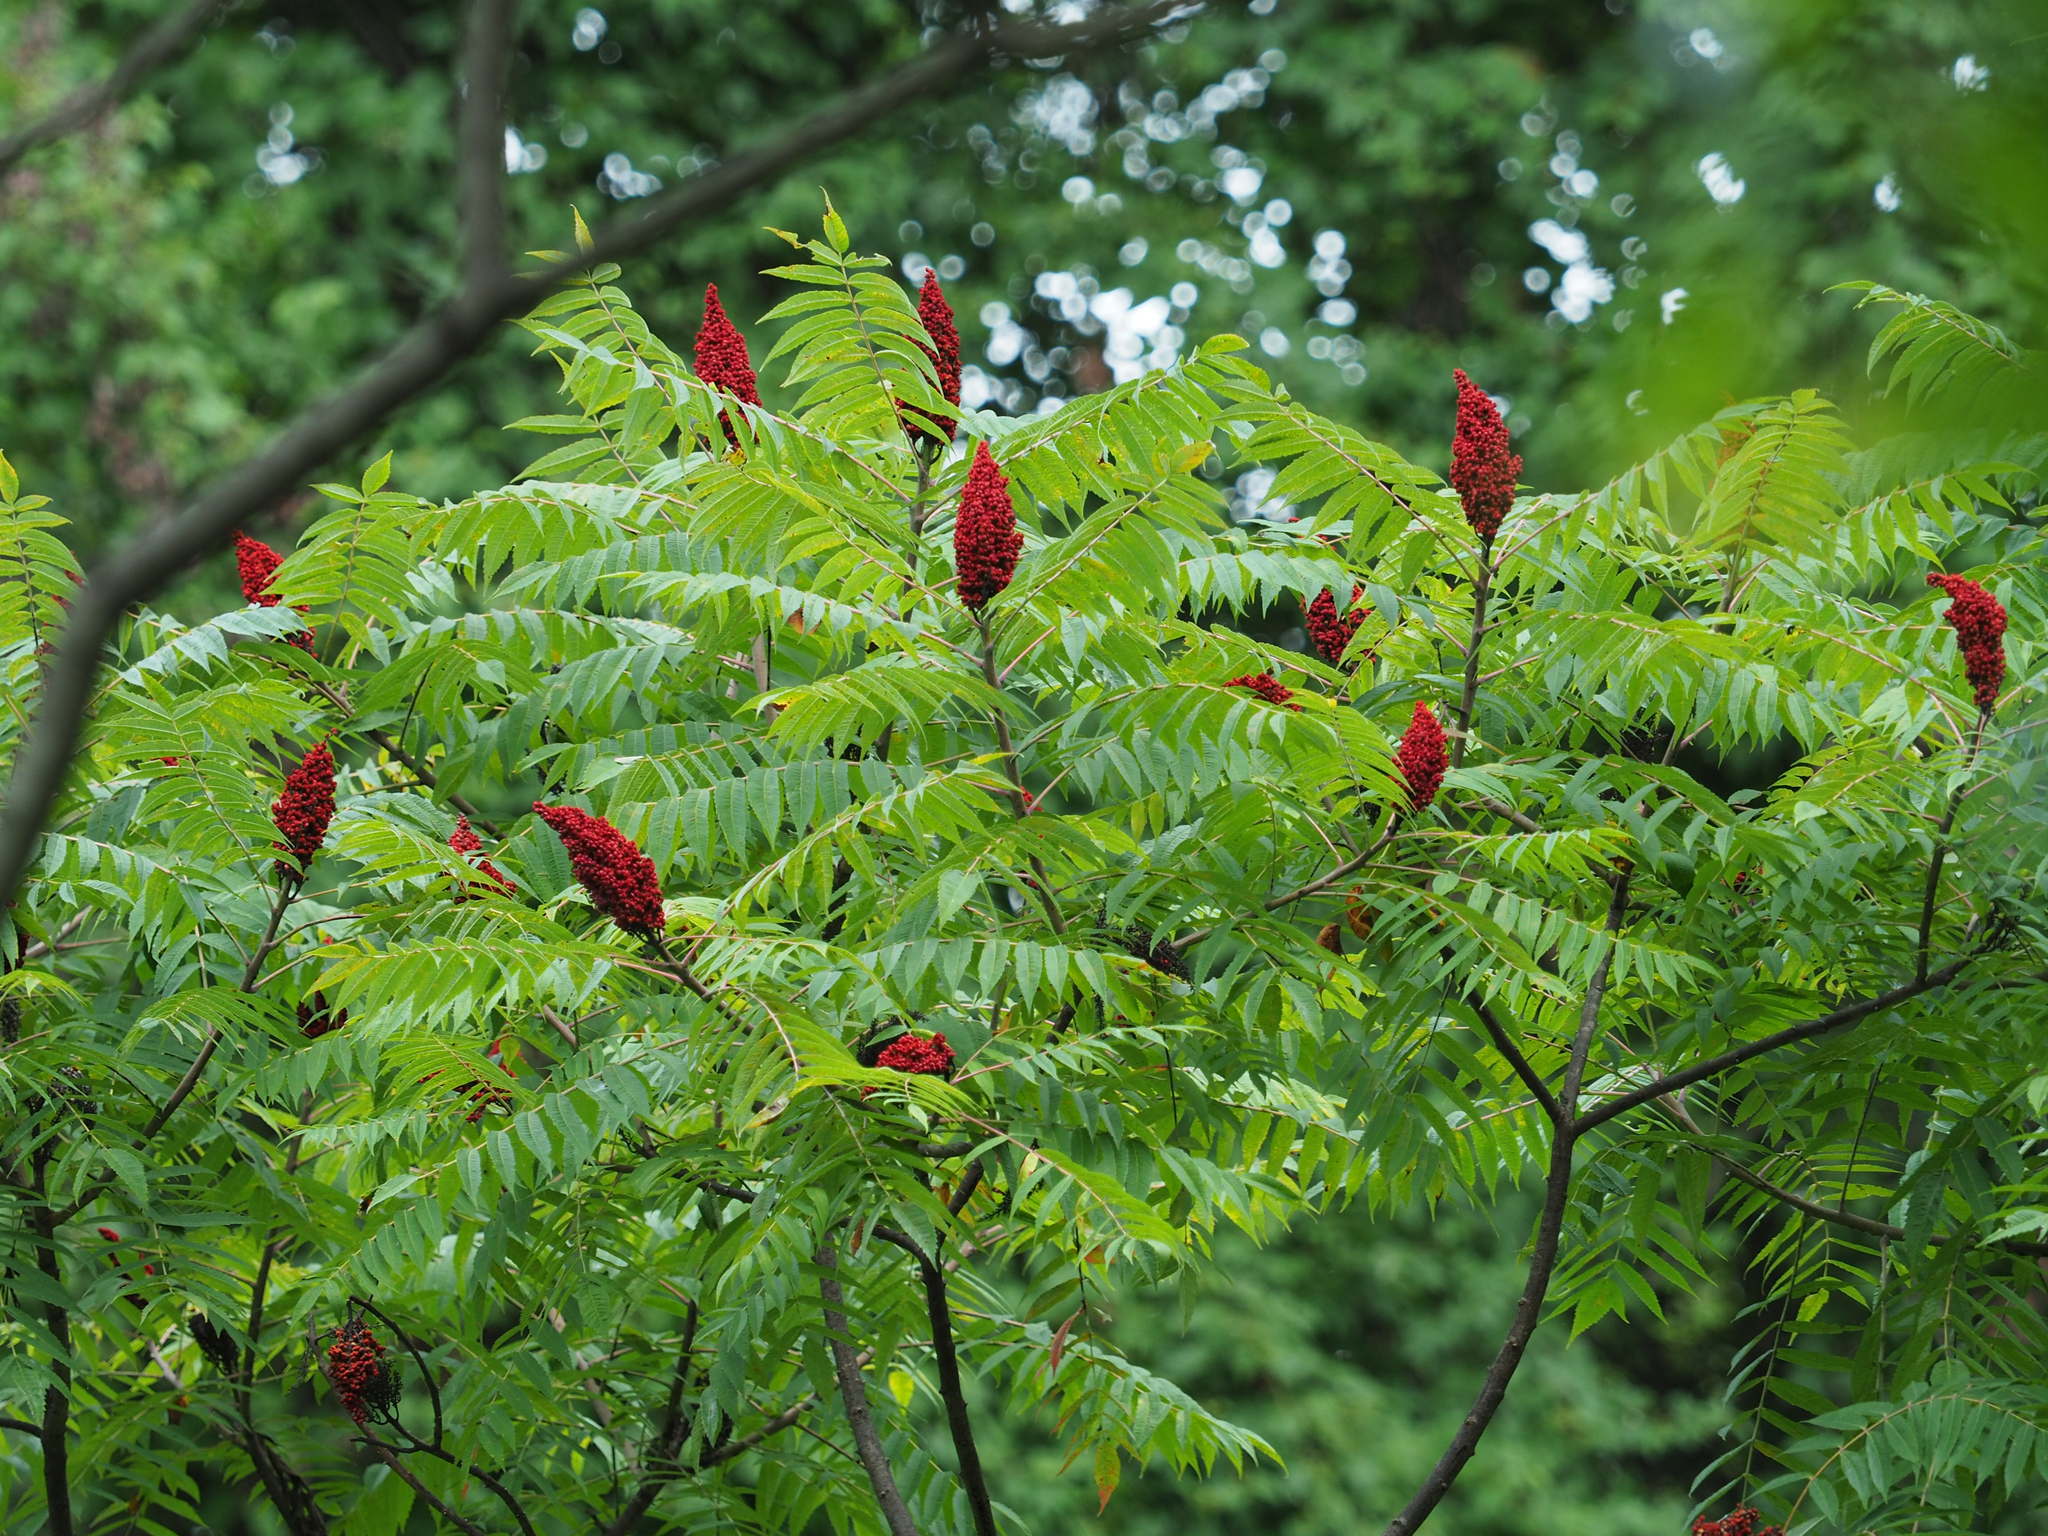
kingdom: Plantae
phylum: Tracheophyta
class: Magnoliopsida
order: Sapindales
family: Anacardiaceae
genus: Rhus
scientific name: Rhus glabra
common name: Scarlet sumac
